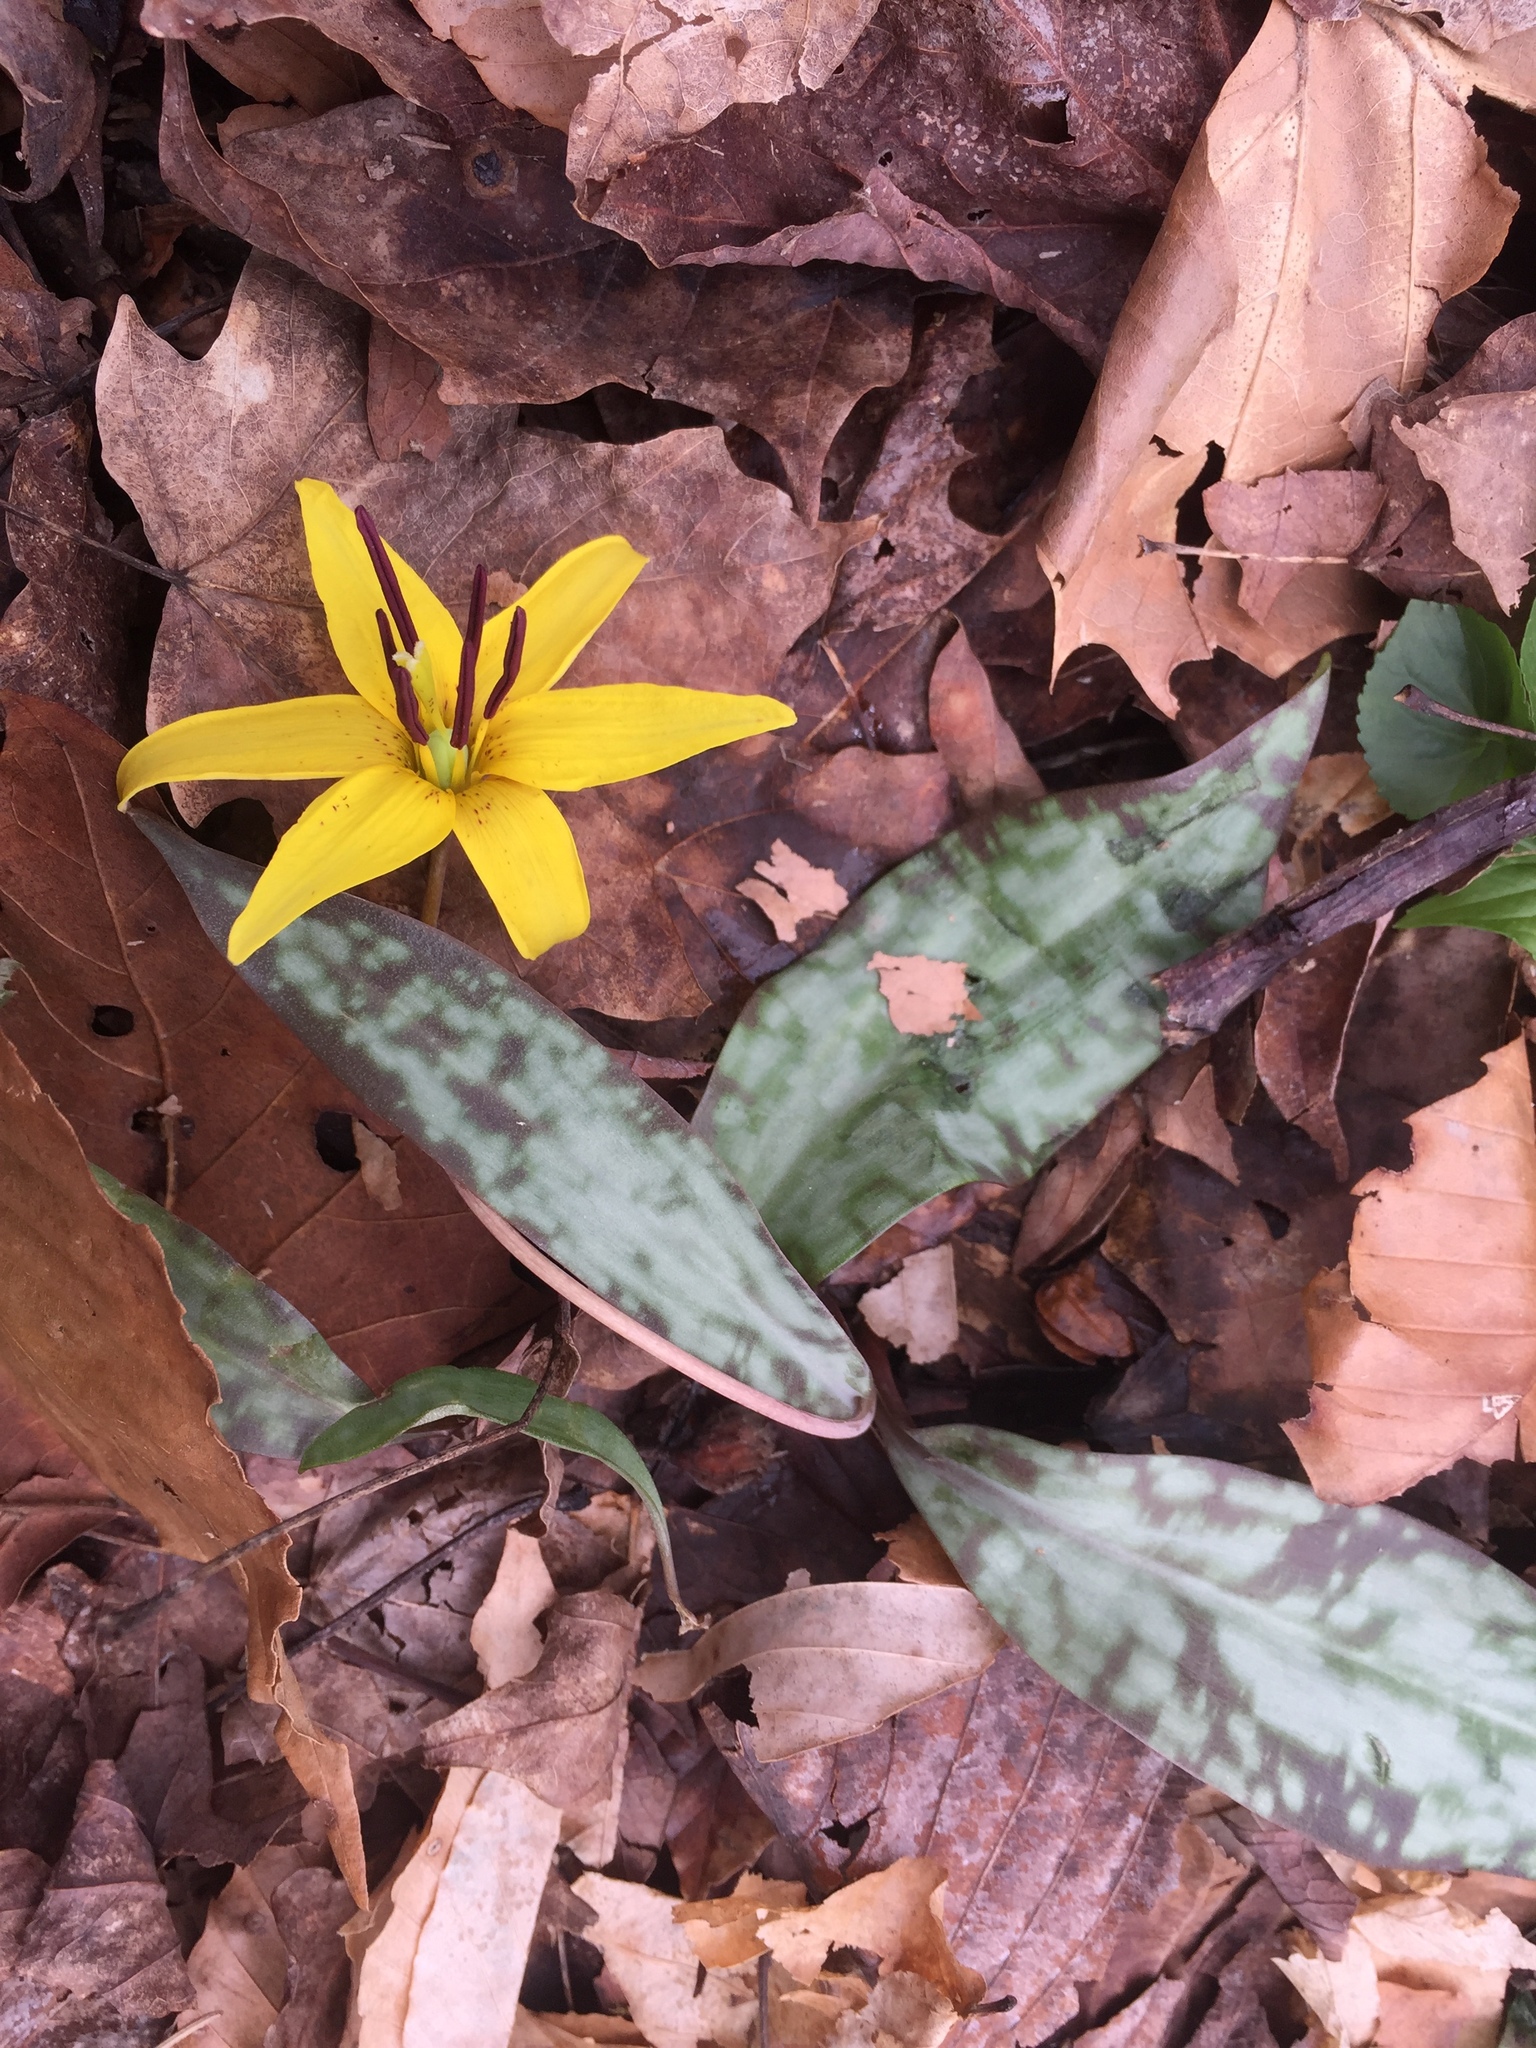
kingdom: Plantae
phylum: Tracheophyta
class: Liliopsida
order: Liliales
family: Liliaceae
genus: Erythronium
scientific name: Erythronium americanum
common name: Yellow adder's-tongue
